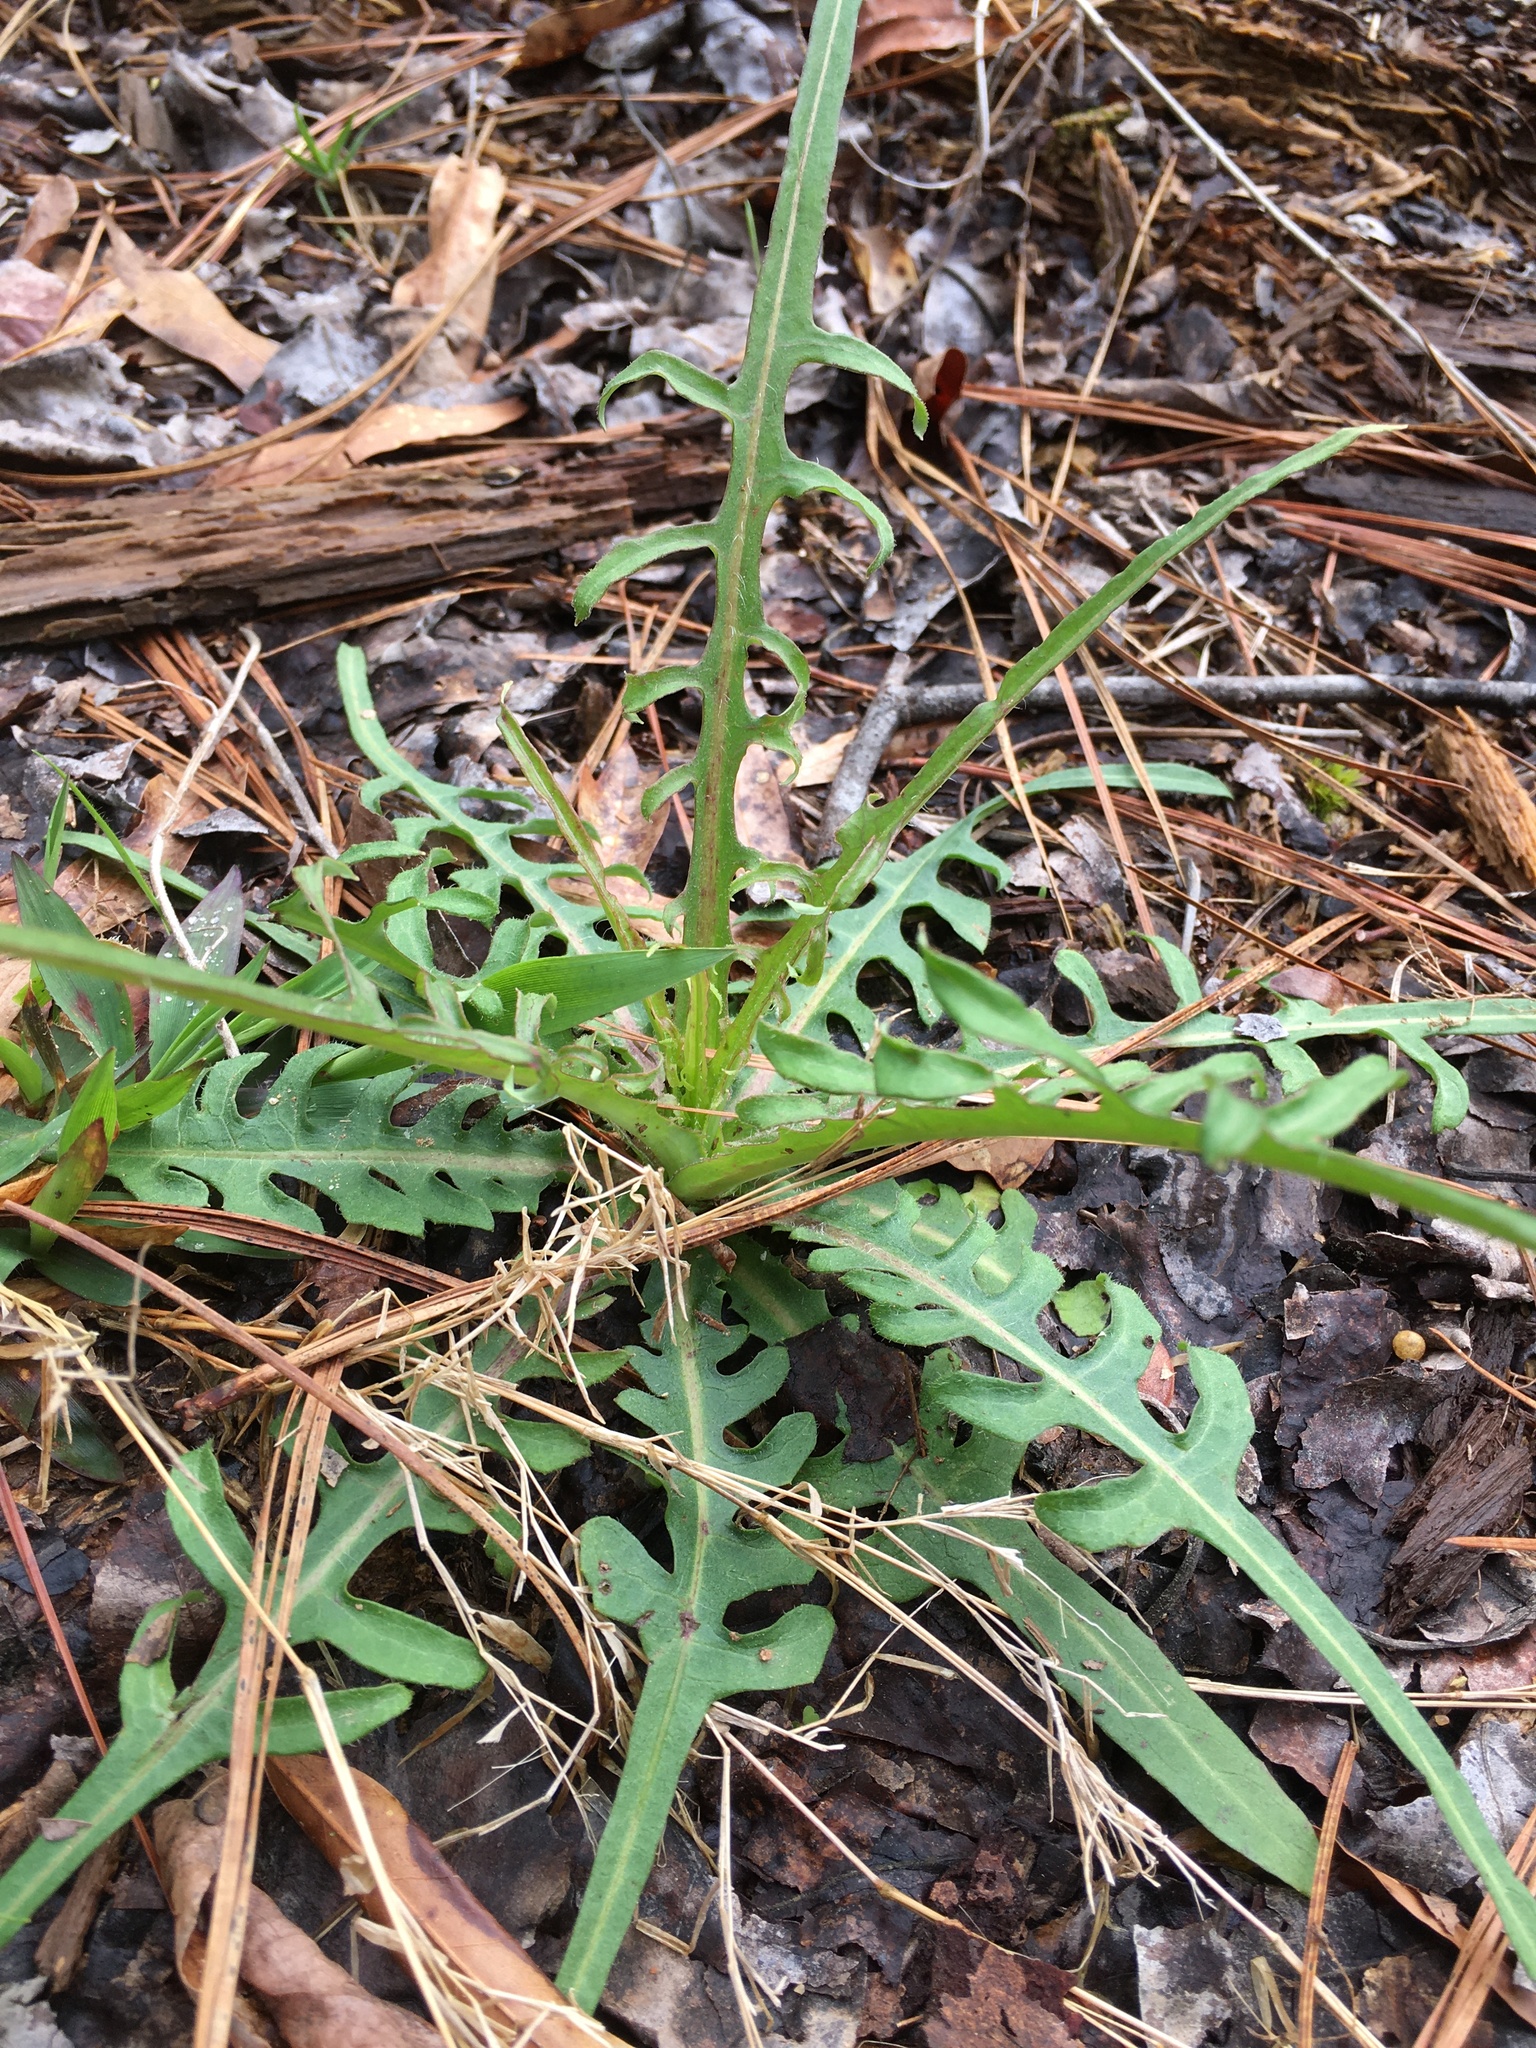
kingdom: Plantae
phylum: Tracheophyta
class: Magnoliopsida
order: Asterales
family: Asteraceae
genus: Pyrrhopappus
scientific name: Pyrrhopappus carolinianus
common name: Carolina desert-chicory
